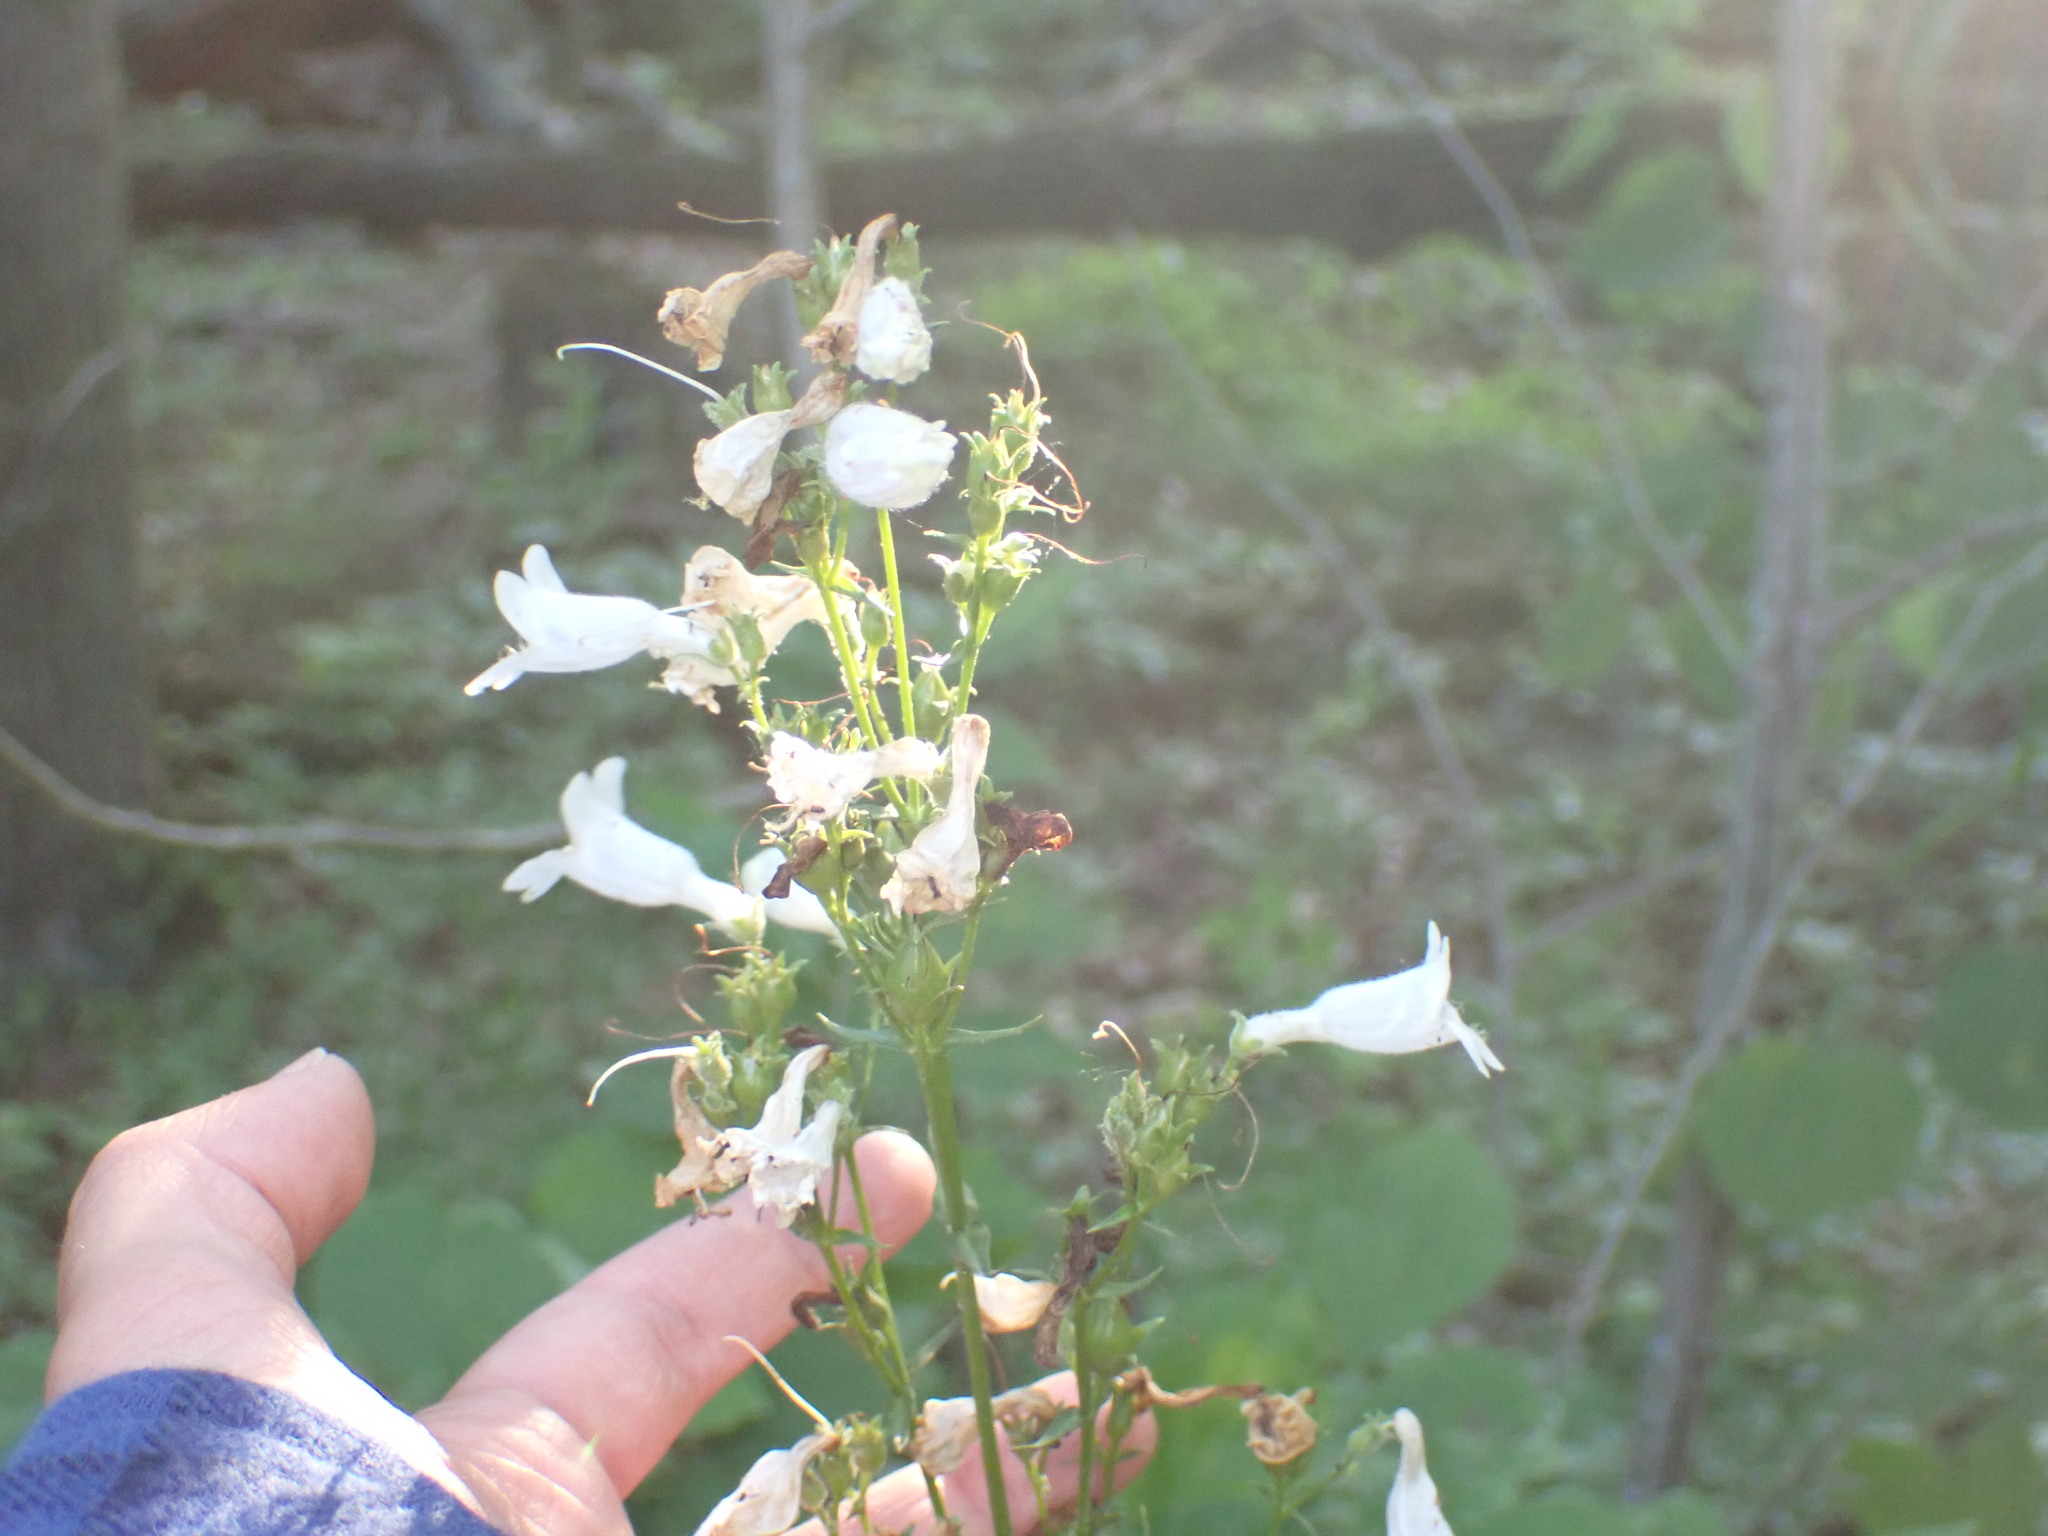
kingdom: Plantae
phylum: Tracheophyta
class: Magnoliopsida
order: Lamiales
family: Plantaginaceae
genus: Penstemon
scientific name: Penstemon digitalis
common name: Foxglove beardtongue
